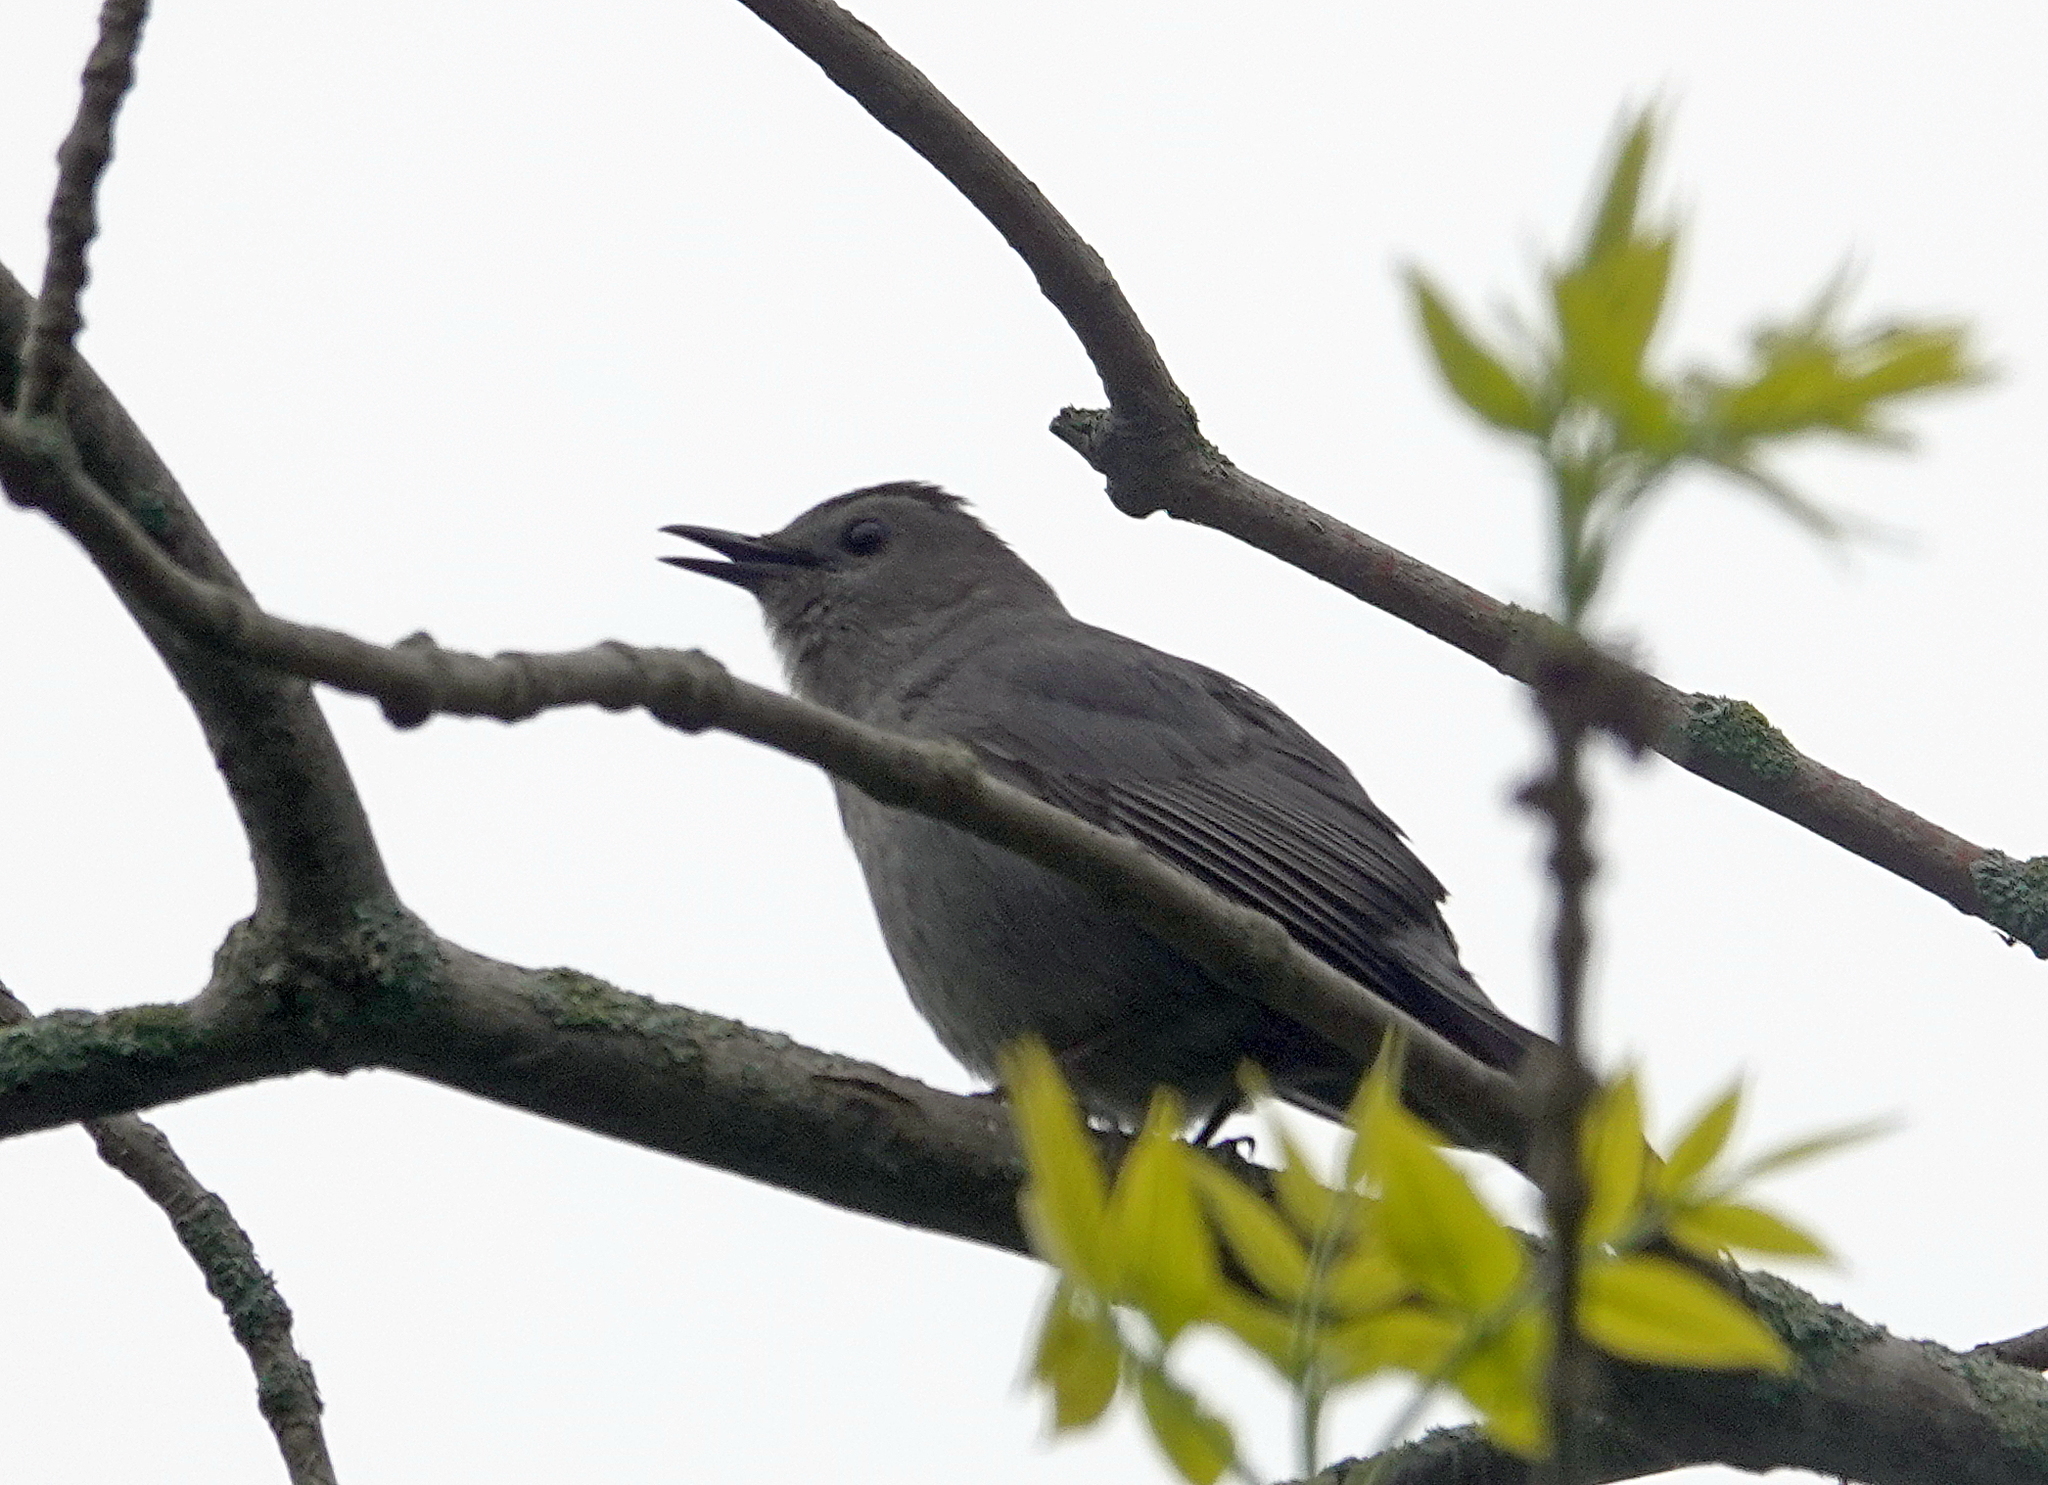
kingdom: Animalia
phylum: Chordata
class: Aves
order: Passeriformes
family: Mimidae
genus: Dumetella
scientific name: Dumetella carolinensis
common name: Gray catbird
